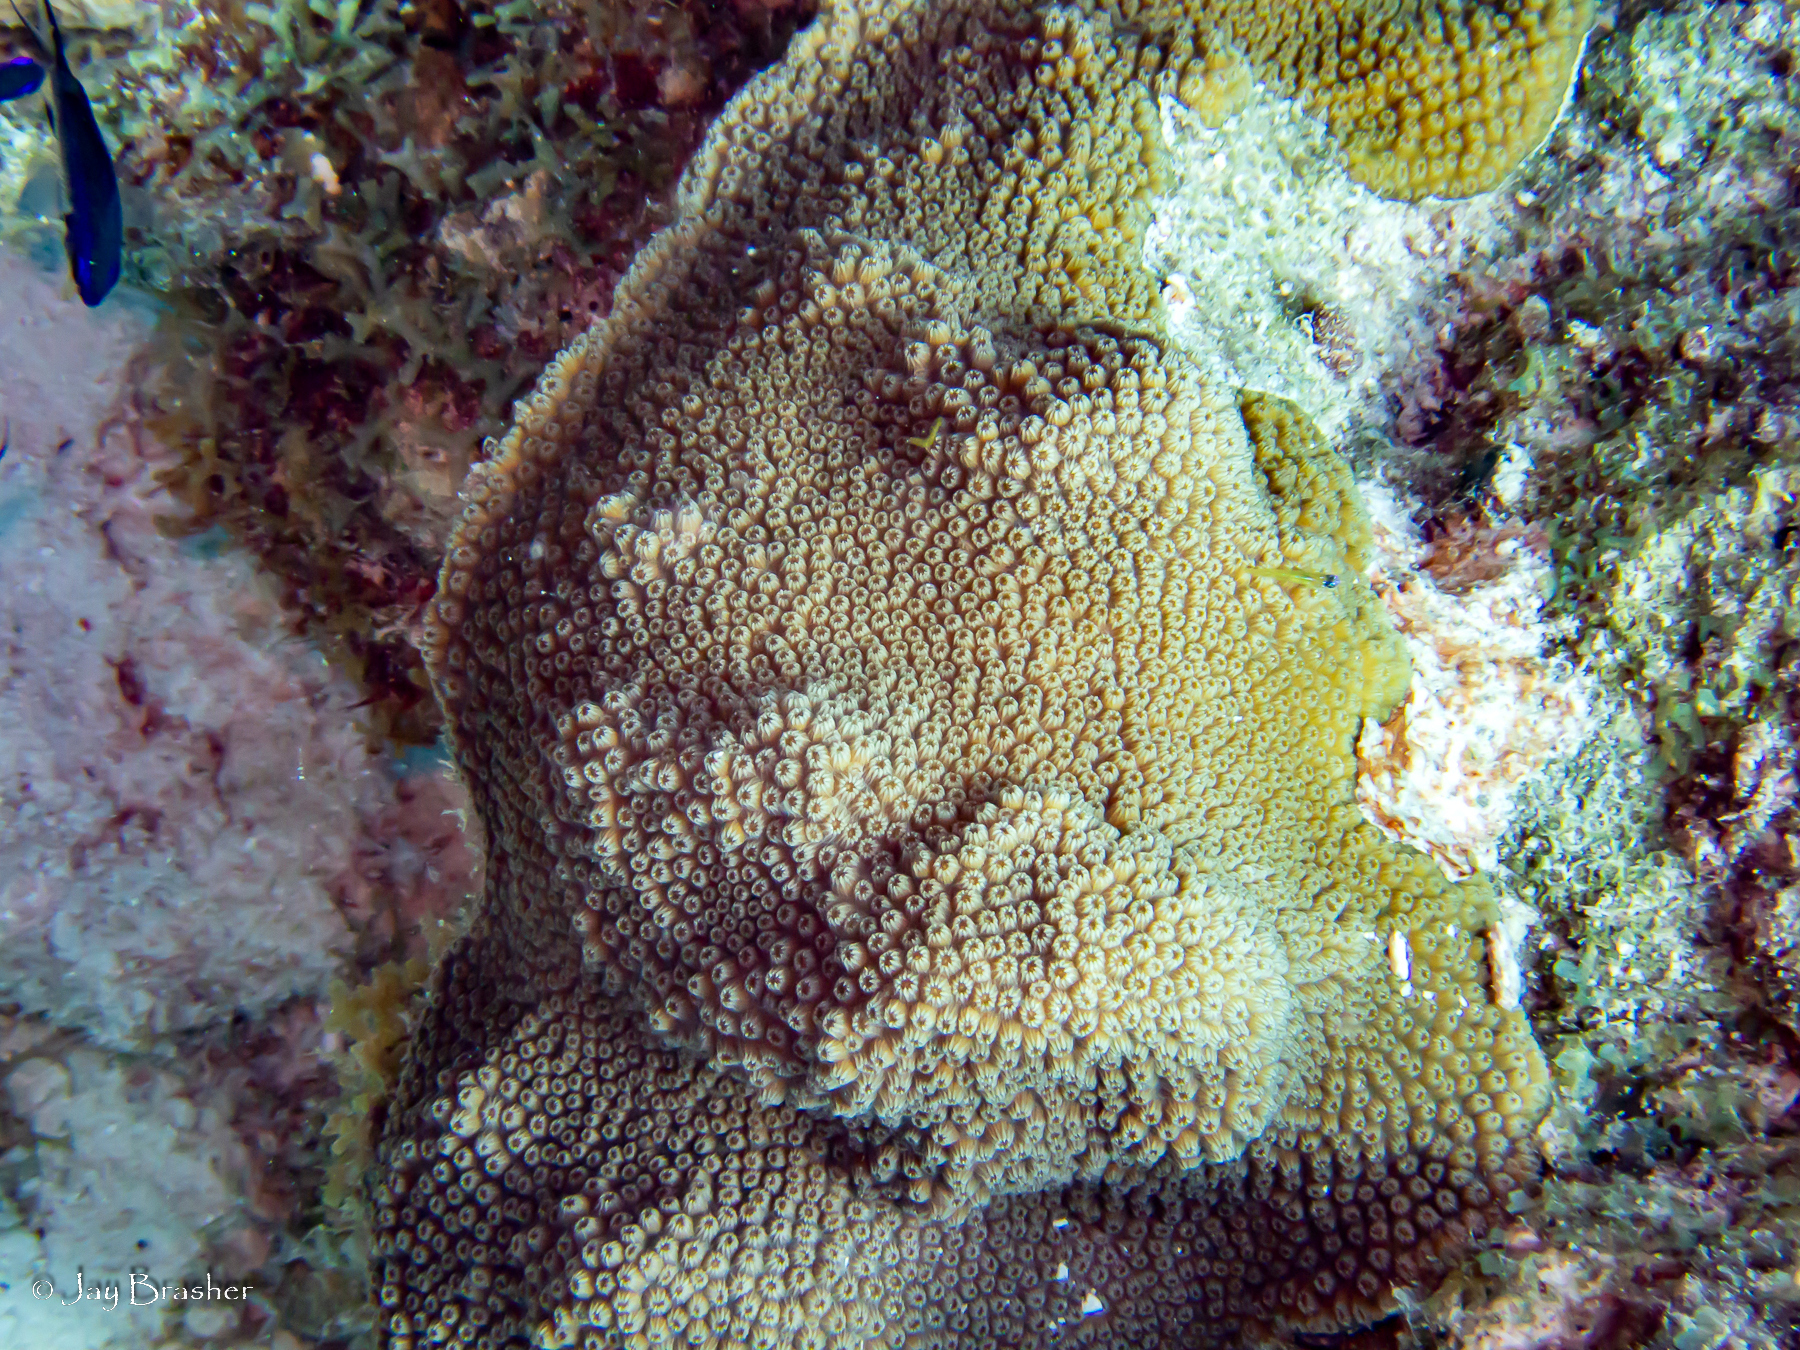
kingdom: Animalia
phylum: Cnidaria
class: Anthozoa
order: Scleractinia
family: Merulinidae
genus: Orbicella
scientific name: Orbicella faveolata
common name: Mountainous star coral
